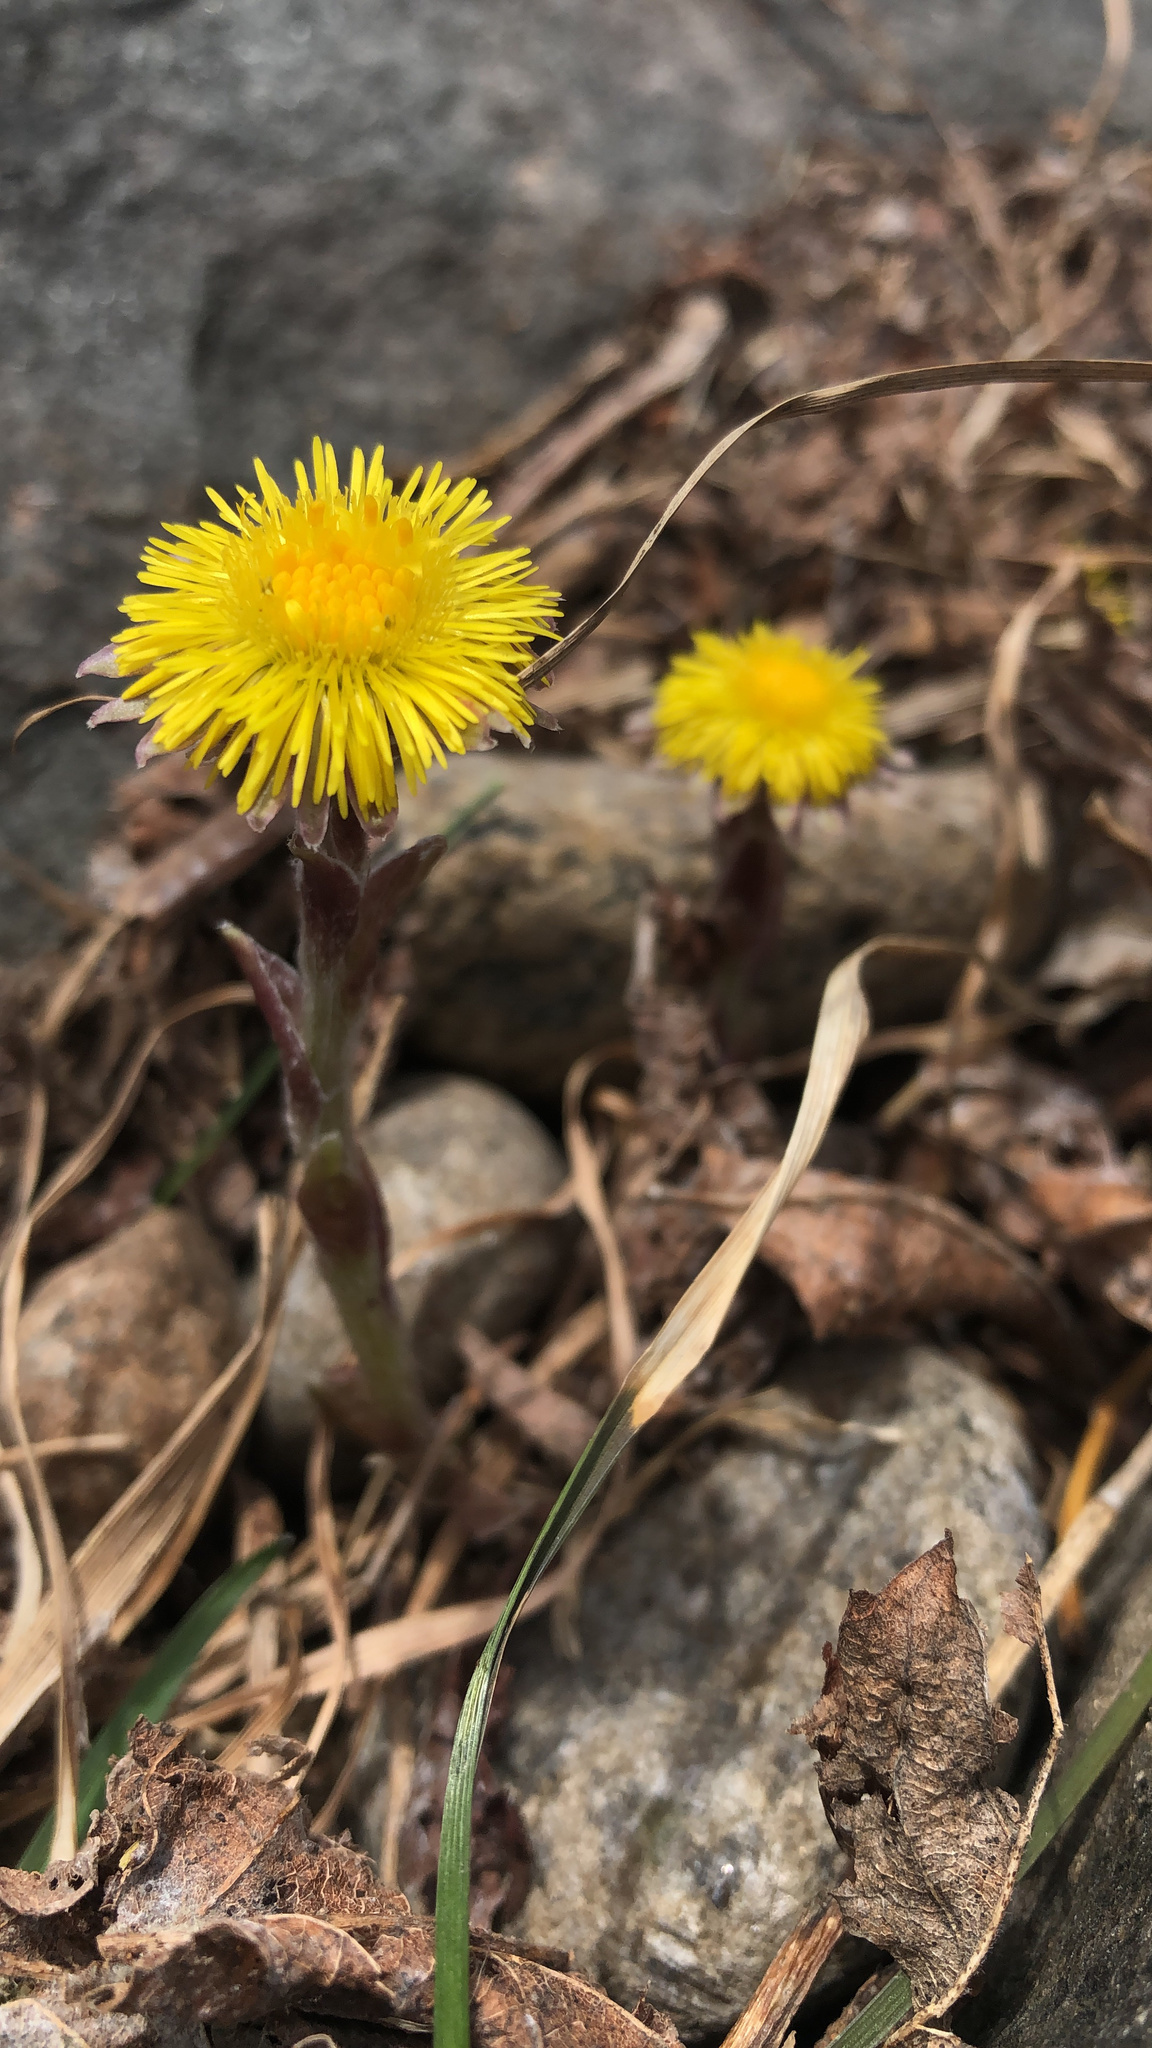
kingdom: Plantae
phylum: Tracheophyta
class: Magnoliopsida
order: Asterales
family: Asteraceae
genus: Tussilago
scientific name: Tussilago farfara
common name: Coltsfoot
